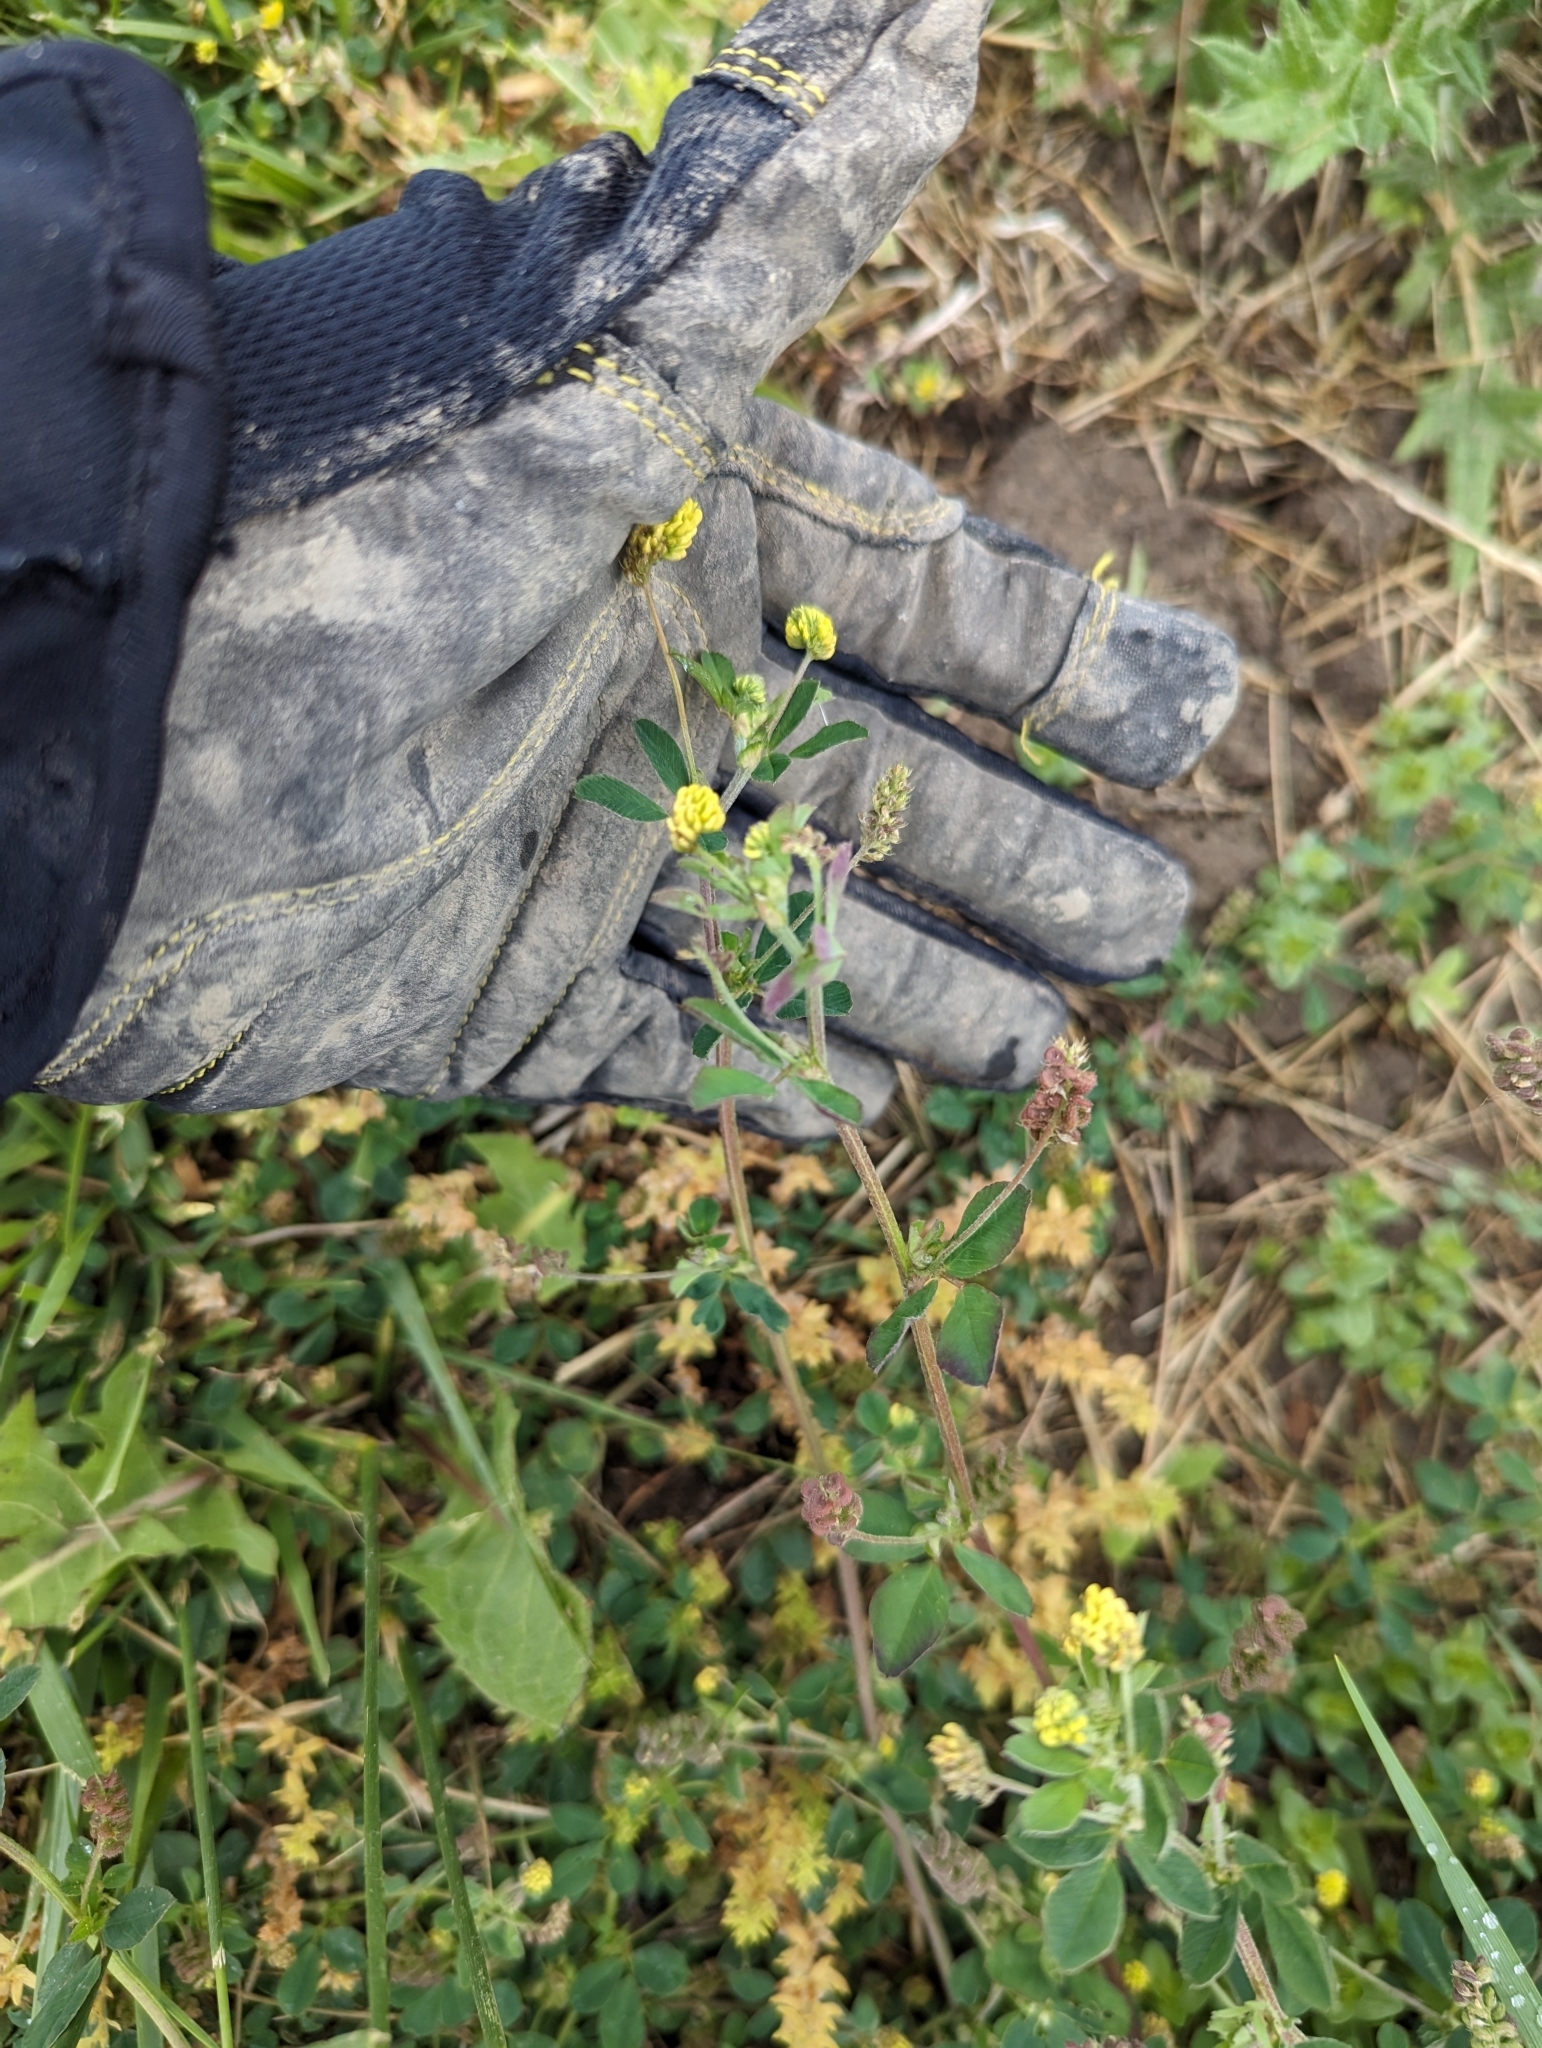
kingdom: Plantae
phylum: Tracheophyta
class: Magnoliopsida
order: Fabales
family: Fabaceae
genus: Medicago
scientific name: Medicago lupulina
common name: Black medick
